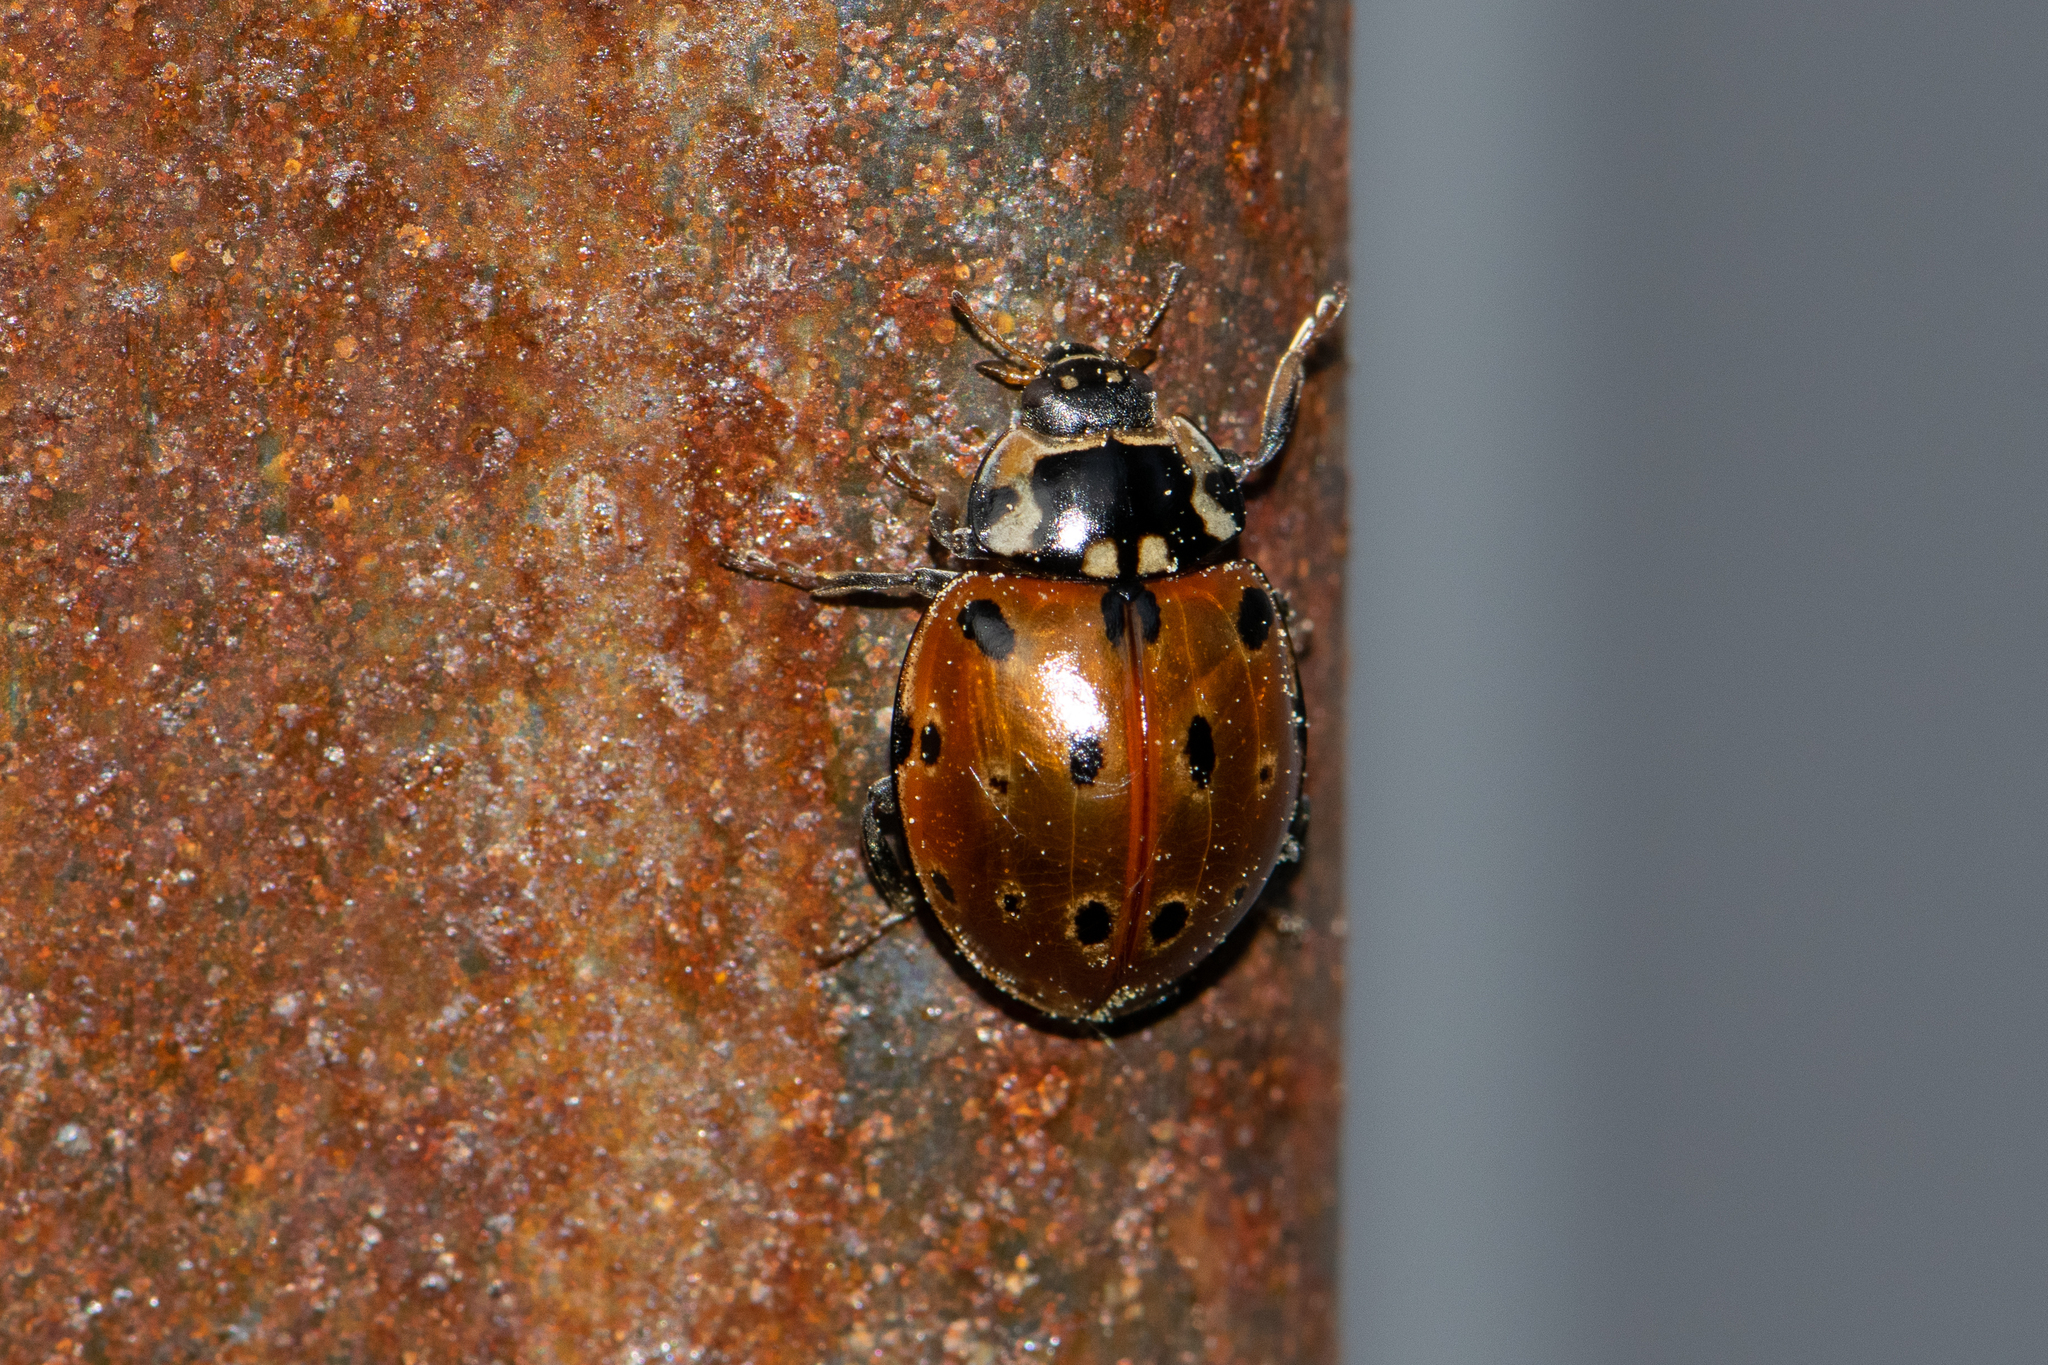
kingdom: Animalia
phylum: Arthropoda
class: Insecta
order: Coleoptera
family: Coccinellidae
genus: Anatis
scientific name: Anatis ocellata
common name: Eyed ladybird
